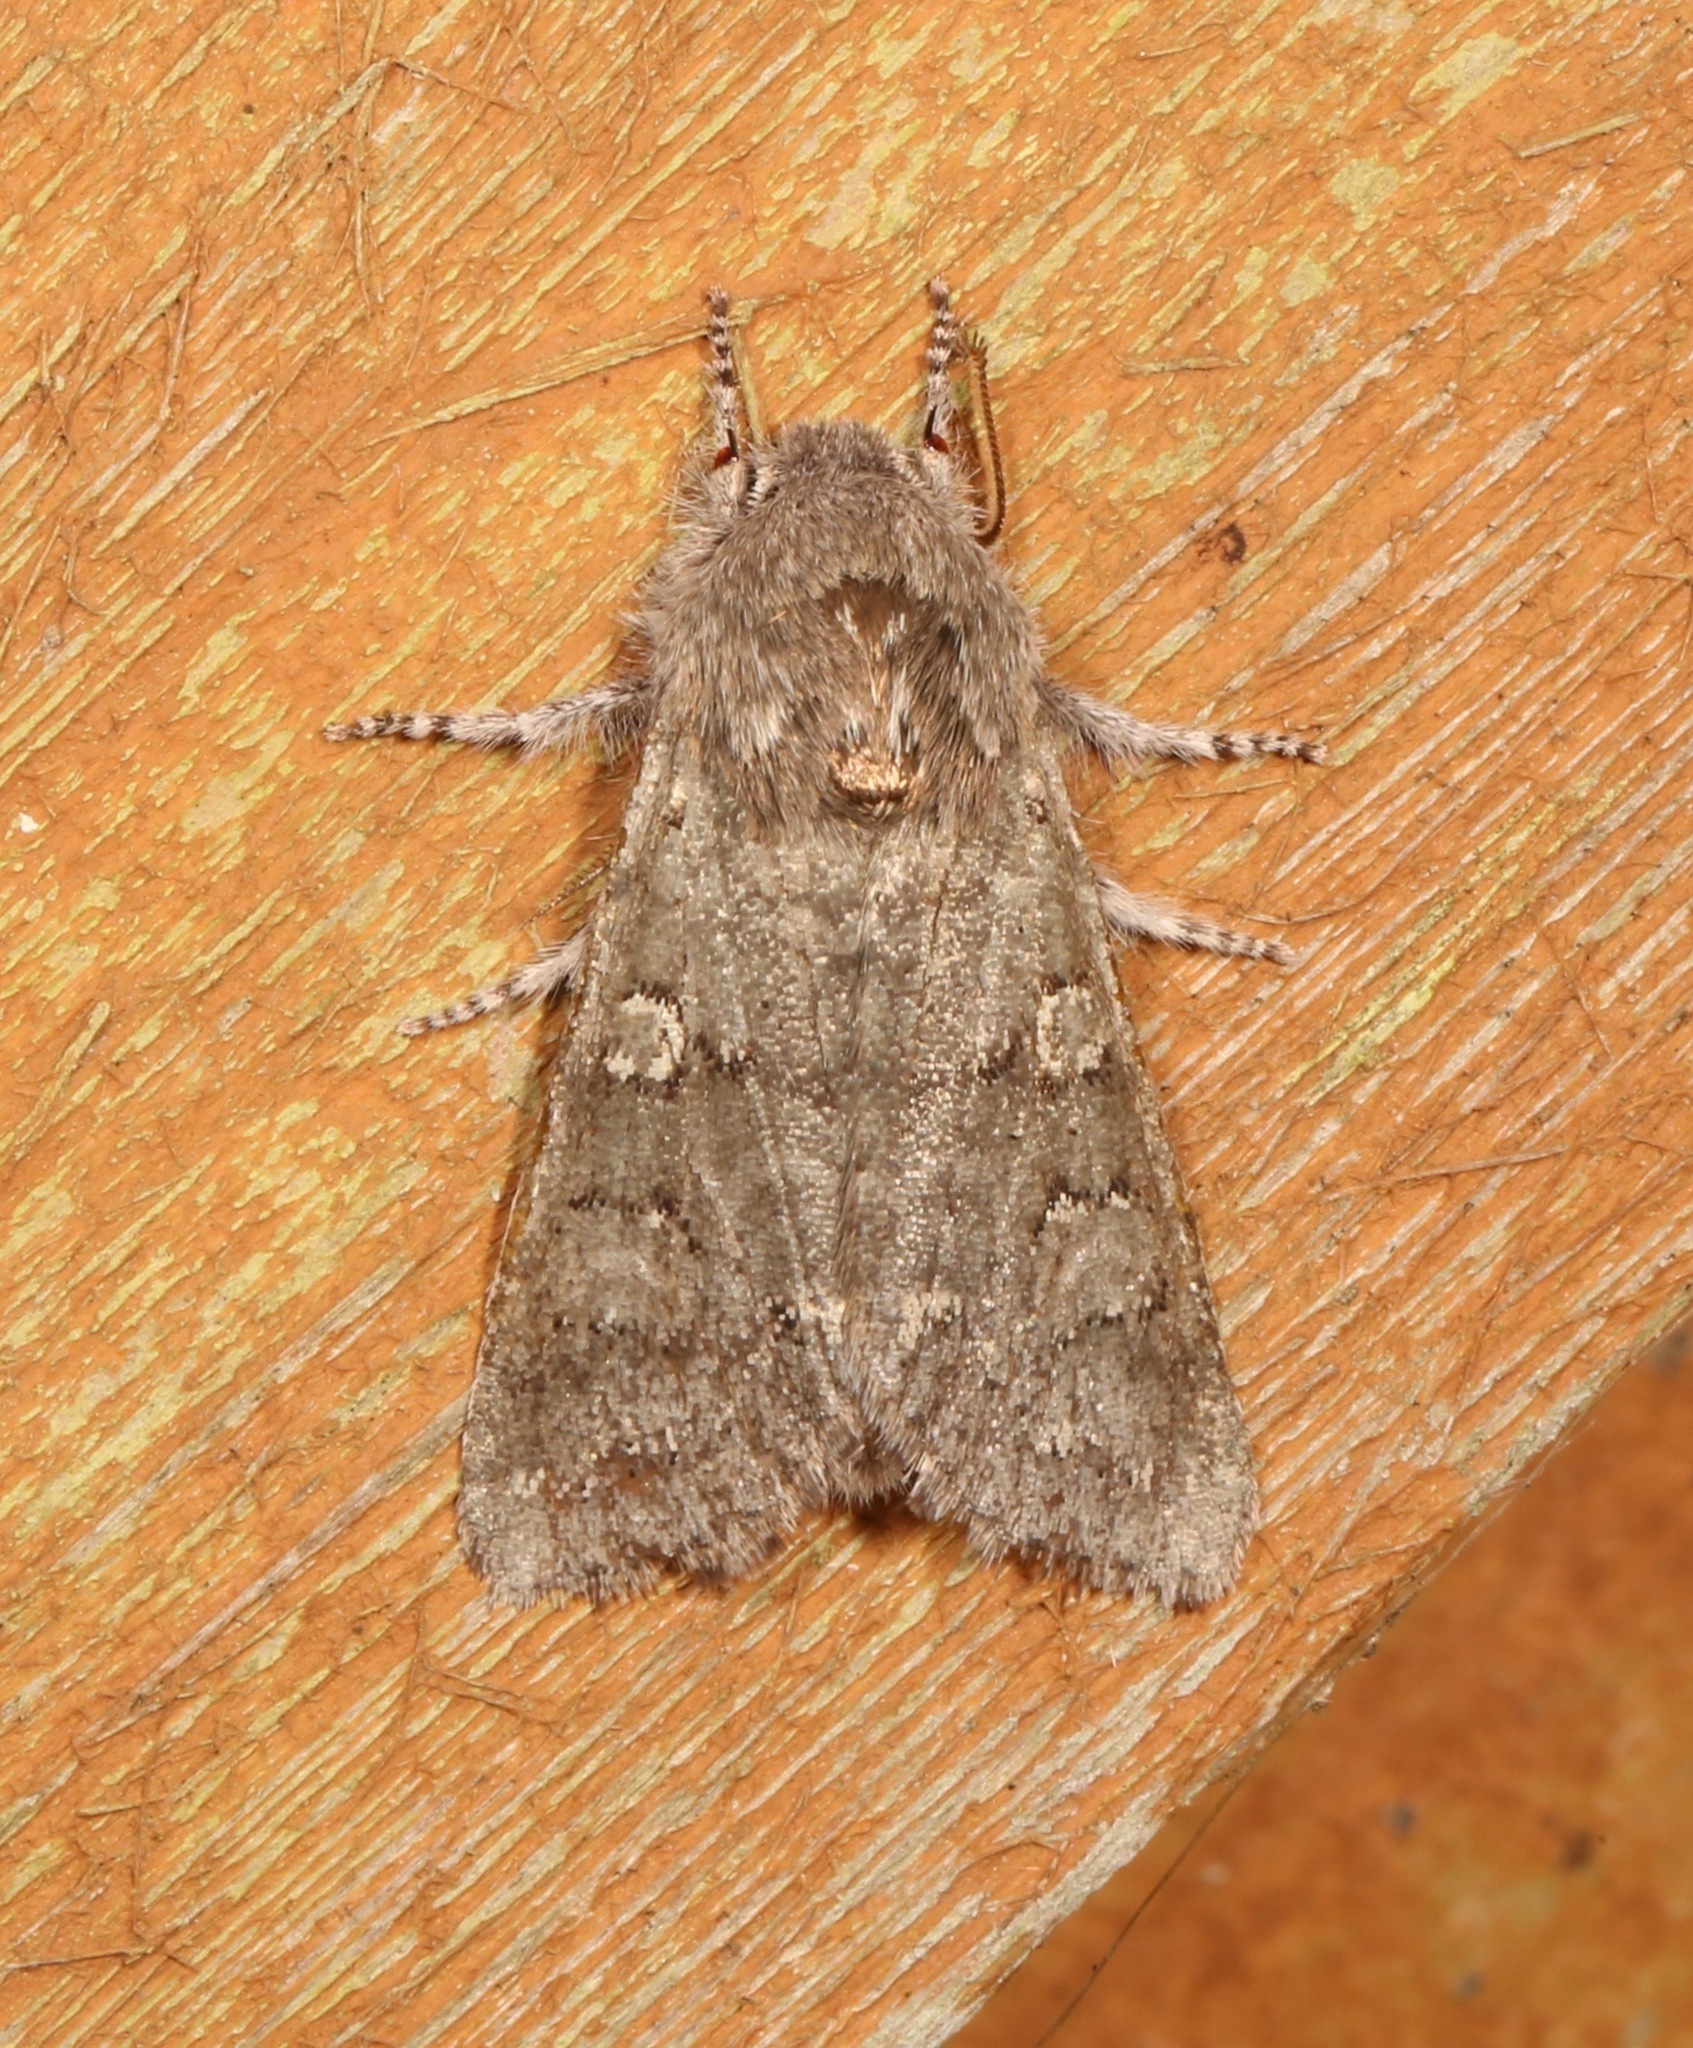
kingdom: Animalia
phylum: Arthropoda
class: Insecta
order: Lepidoptera
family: Noctuidae
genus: Psaphida
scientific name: Psaphida rolandi
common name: Roland's sallow
